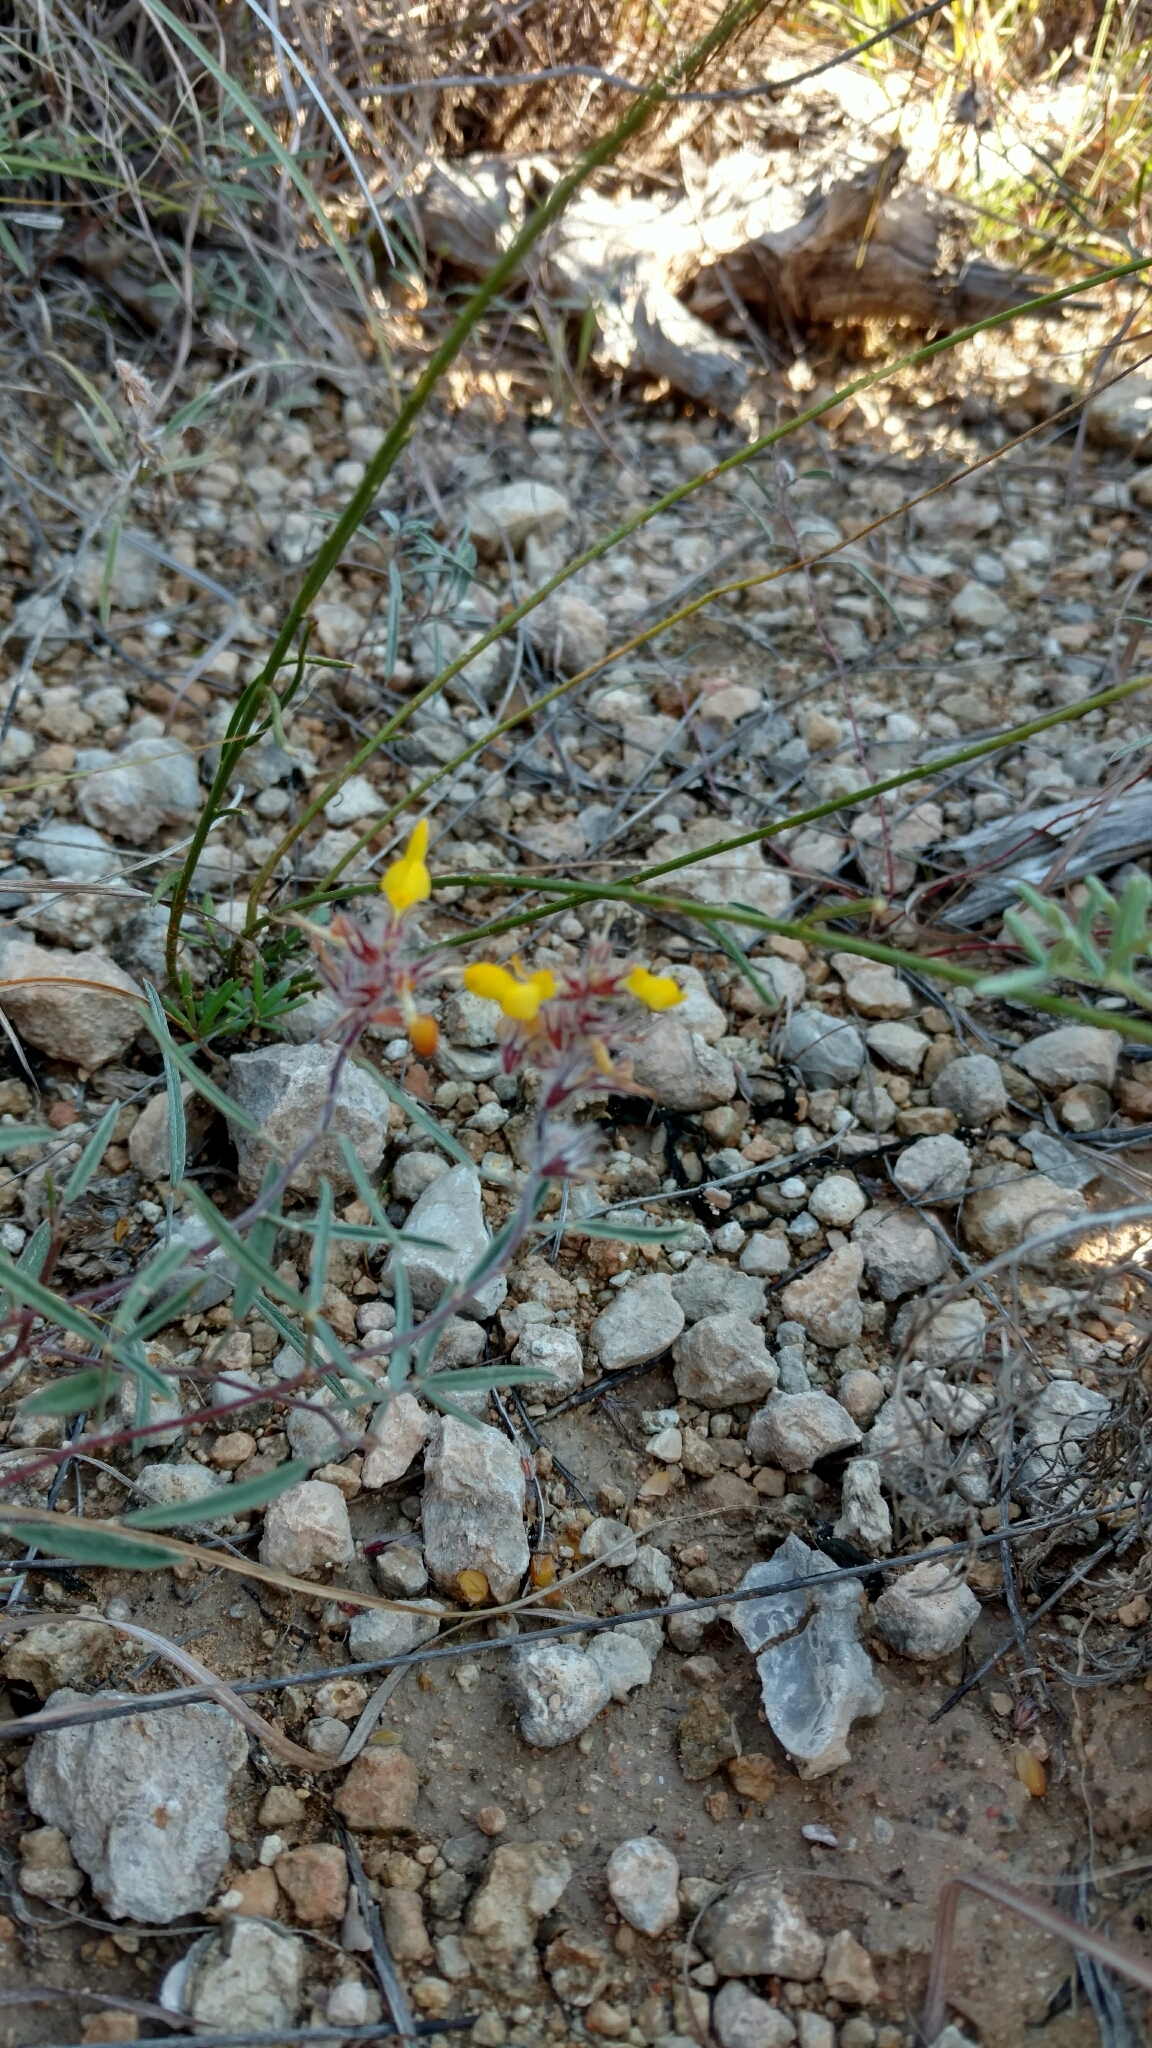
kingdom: Plantae
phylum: Tracheophyta
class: Magnoliopsida
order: Fabales
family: Fabaceae
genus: Dalea
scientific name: Dalea hallii
